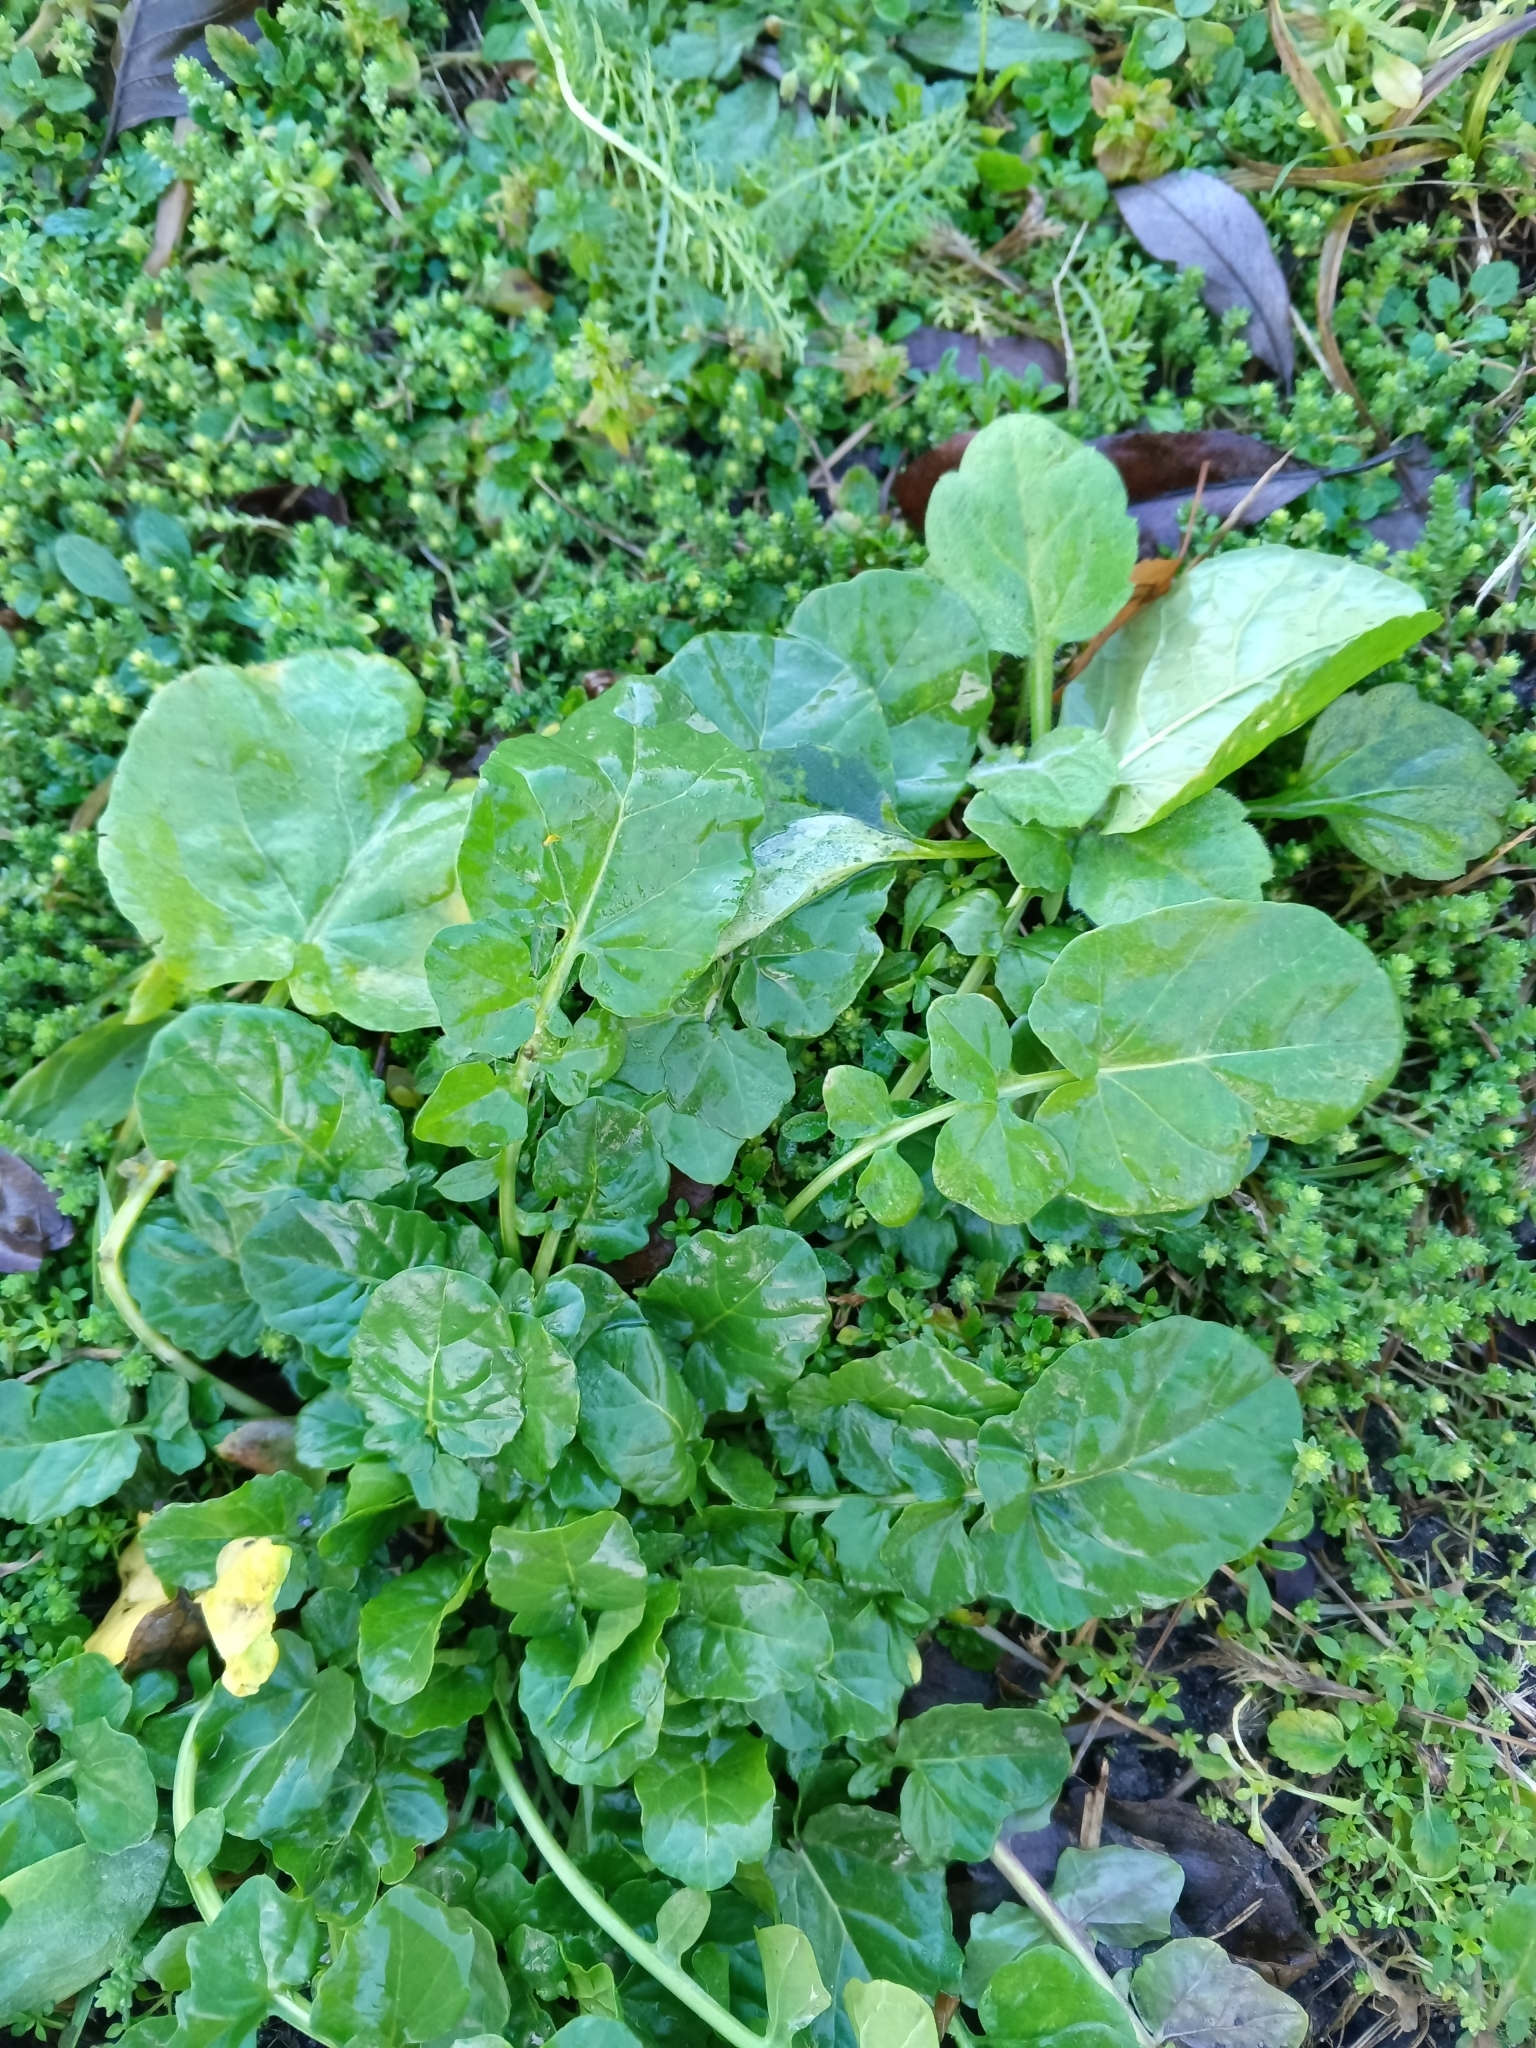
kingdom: Plantae
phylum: Tracheophyta
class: Magnoliopsida
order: Brassicales
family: Brassicaceae
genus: Barbarea
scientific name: Barbarea vulgaris
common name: Cressy-greens
